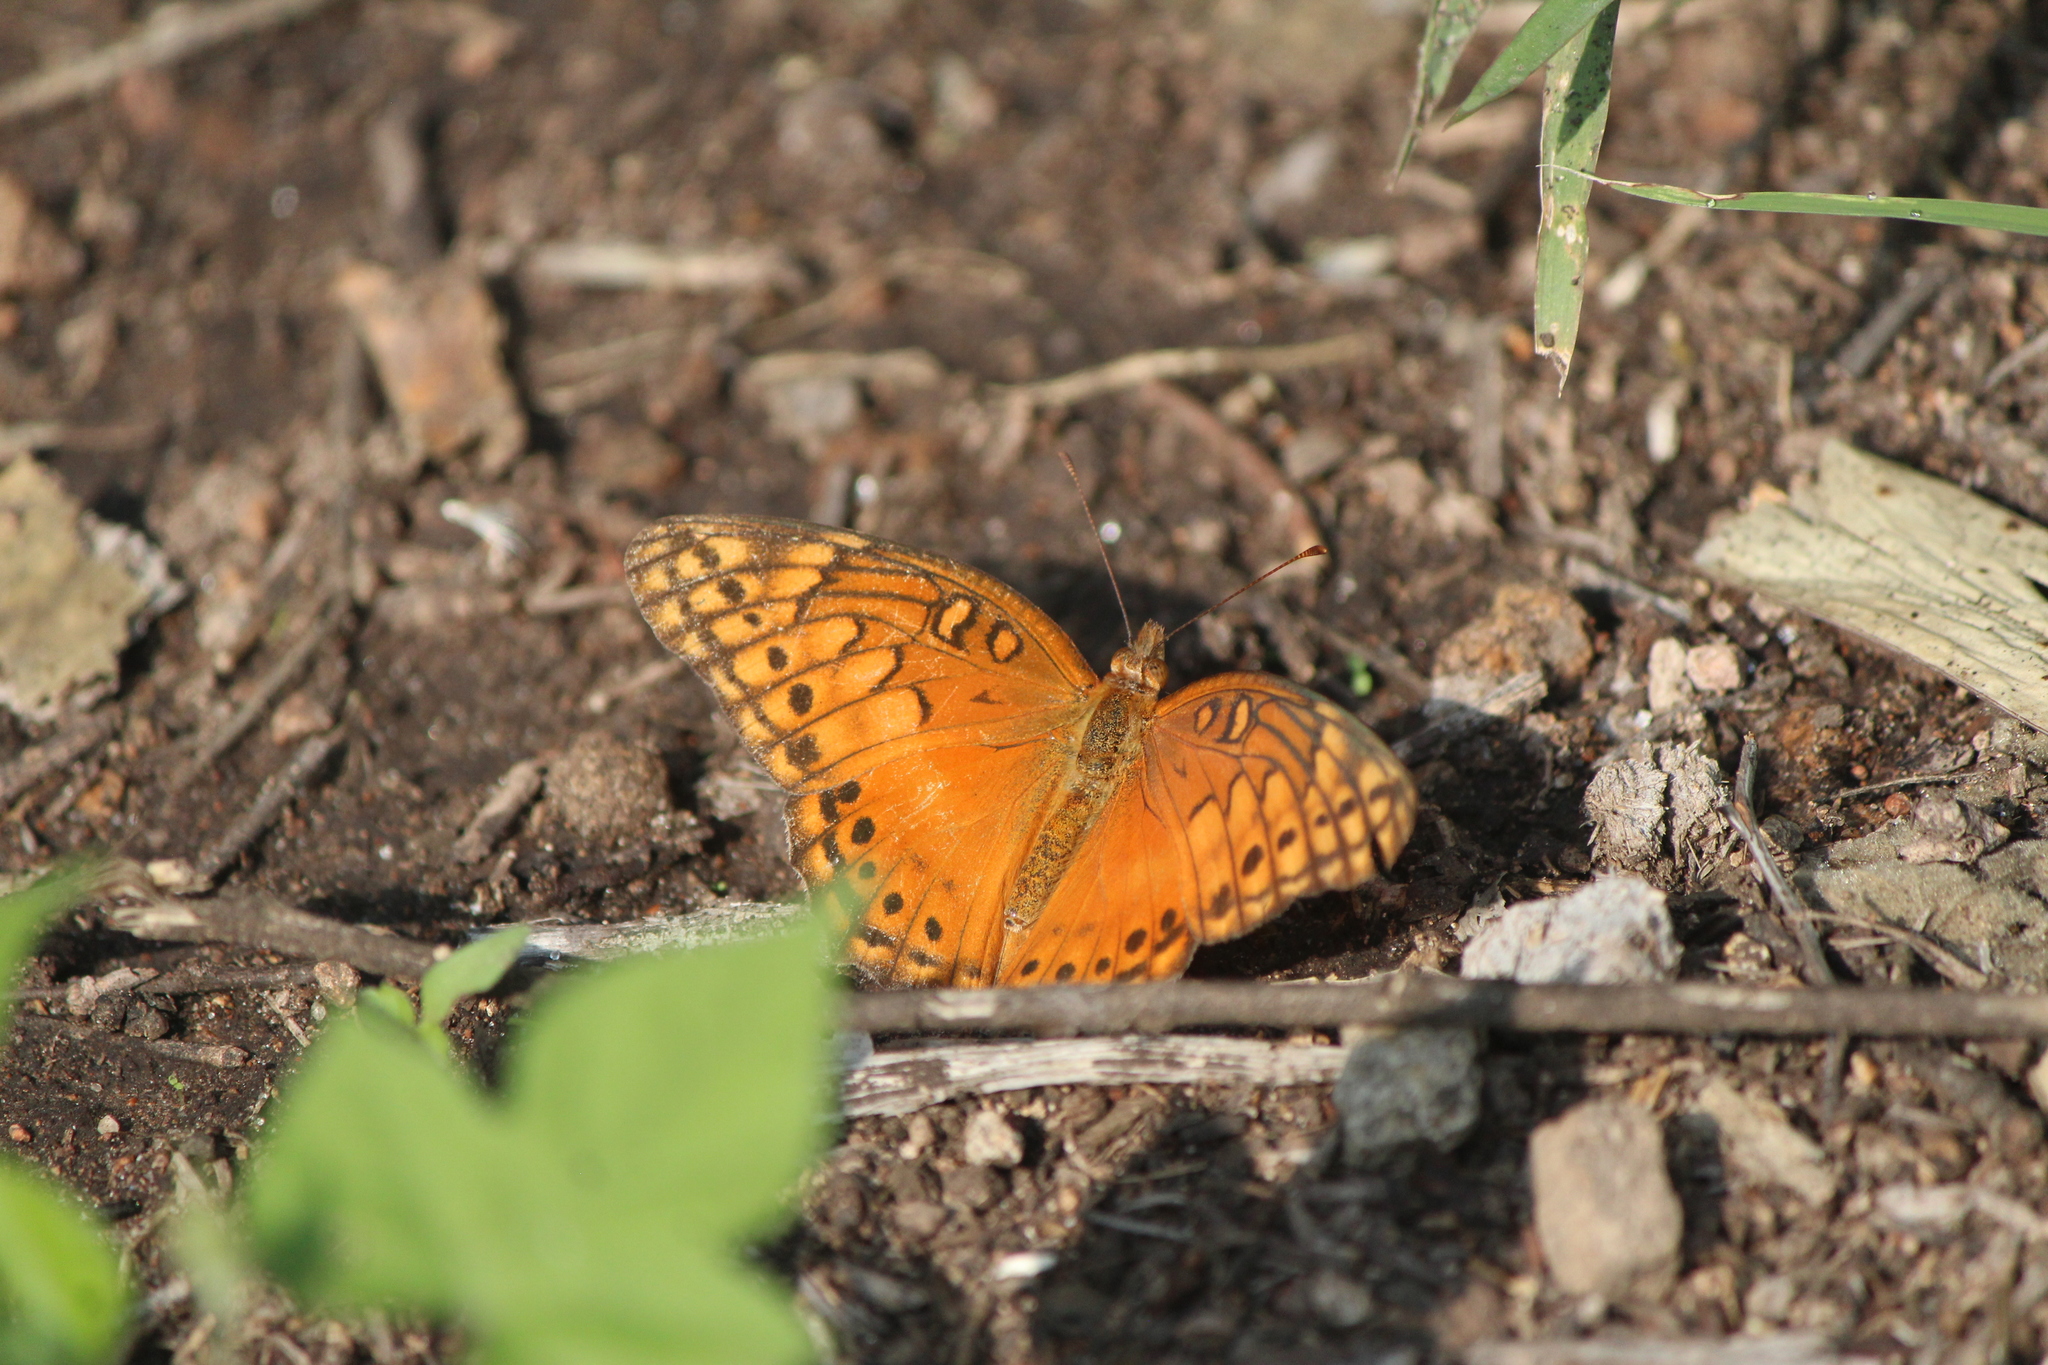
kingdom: Animalia
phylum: Arthropoda
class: Insecta
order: Lepidoptera
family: Nymphalidae
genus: Euptoieta
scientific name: Euptoieta hegesia
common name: Mexican fritillary
